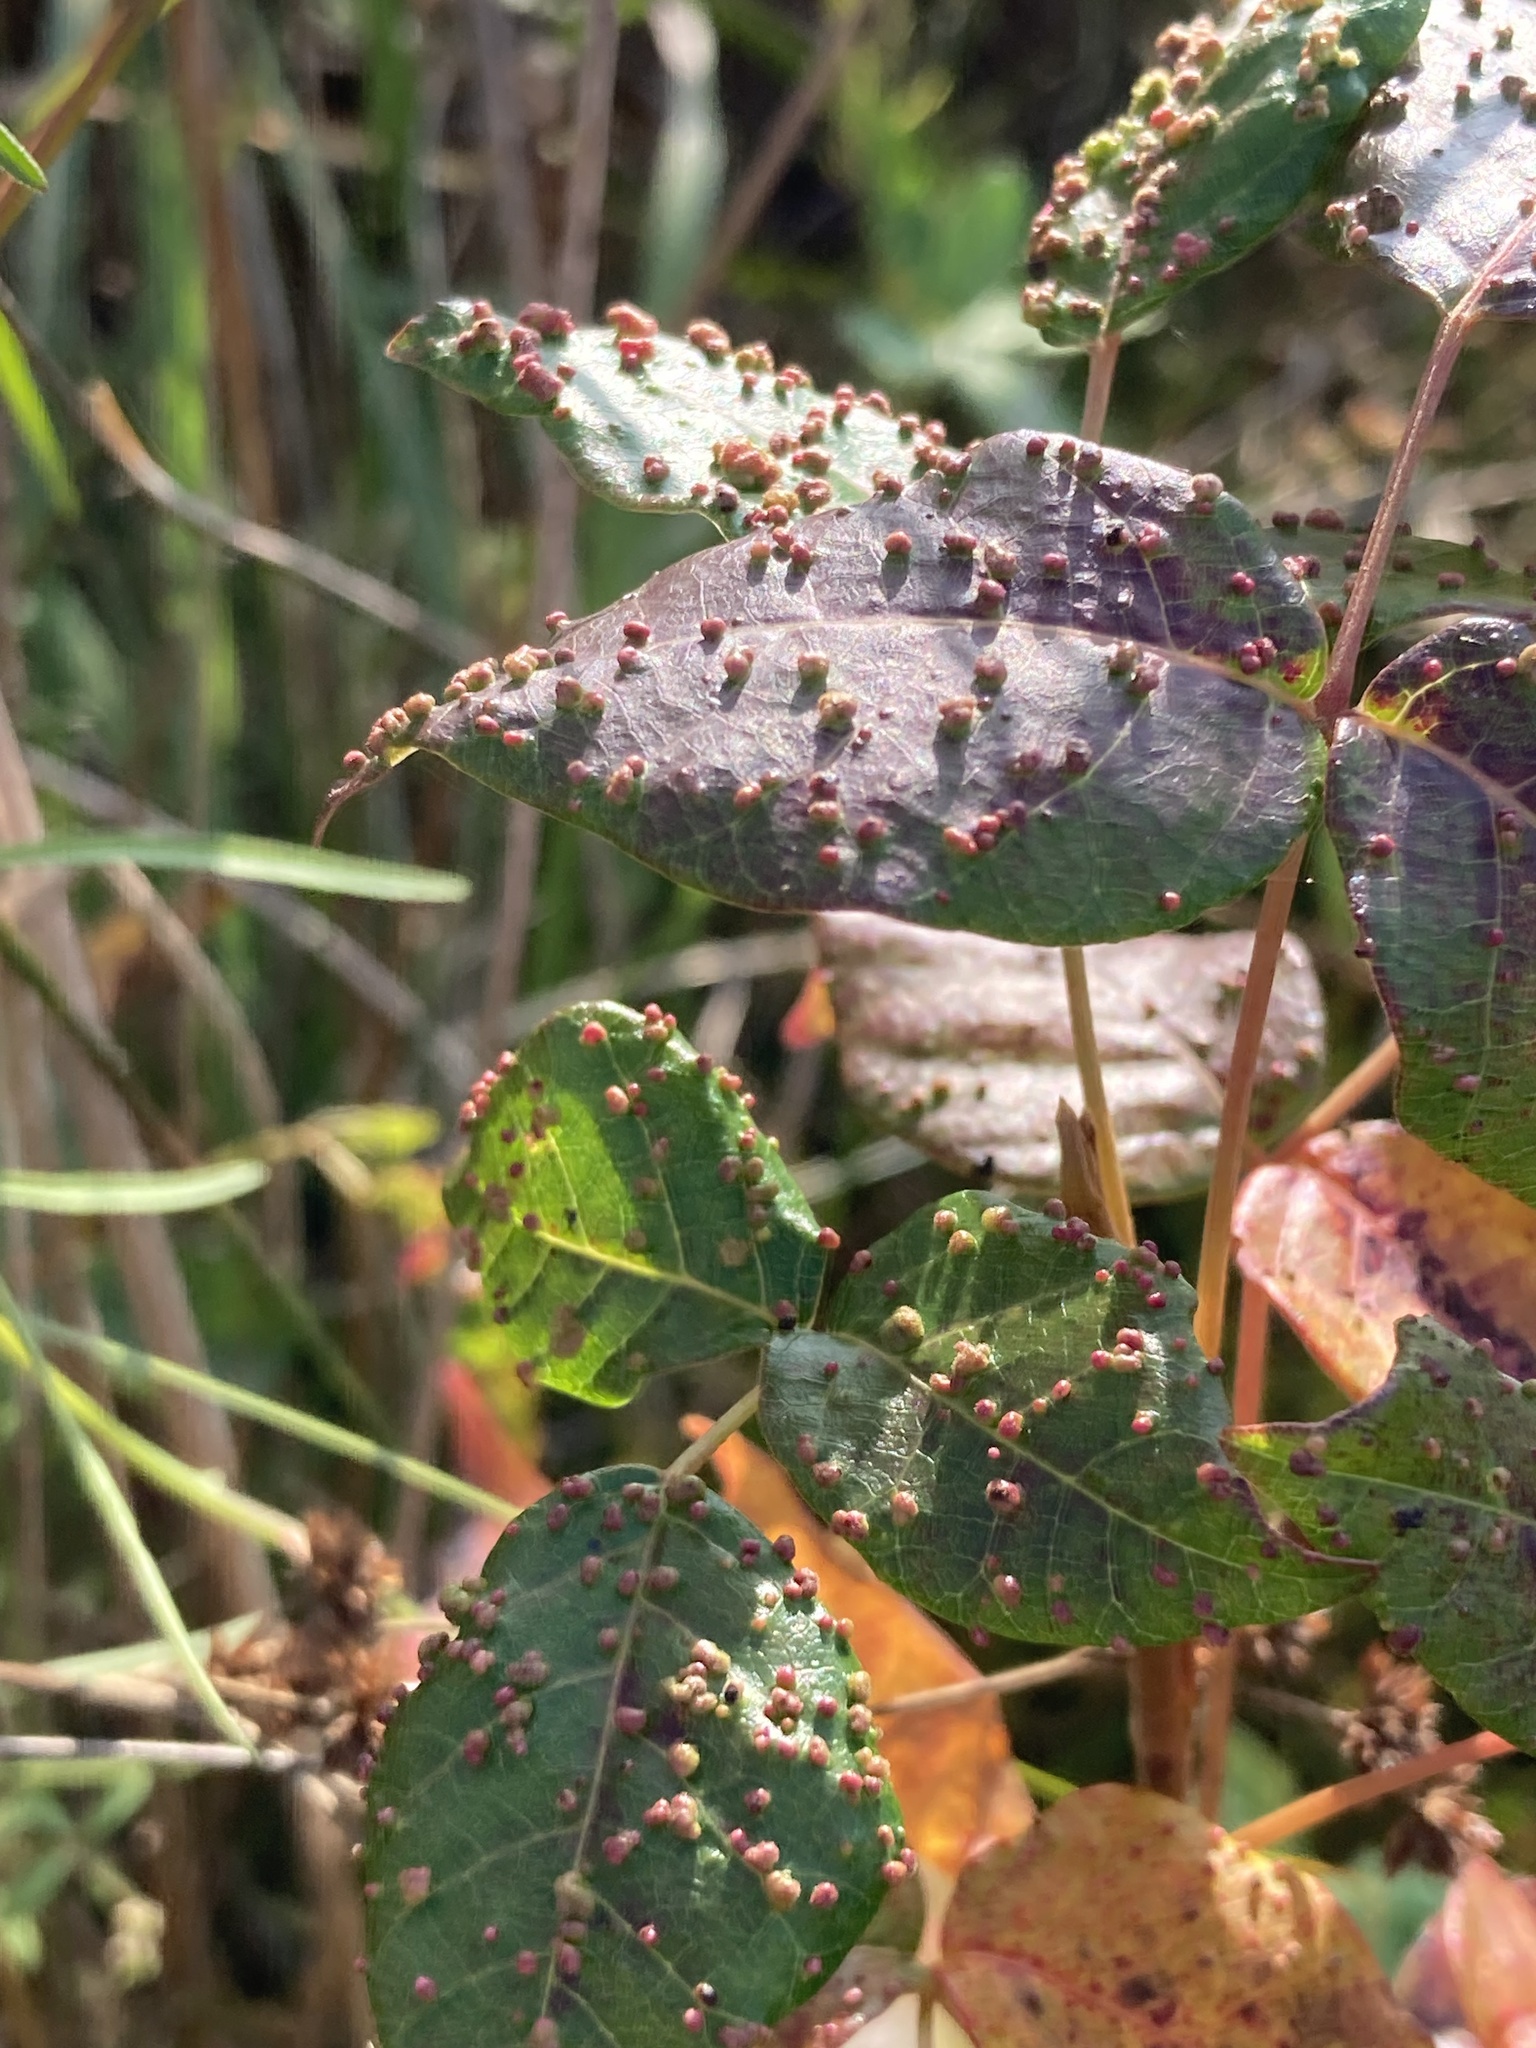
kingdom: Animalia
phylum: Arthropoda
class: Arachnida
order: Trombidiformes
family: Eriophyidae
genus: Aculops
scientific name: Aculops
